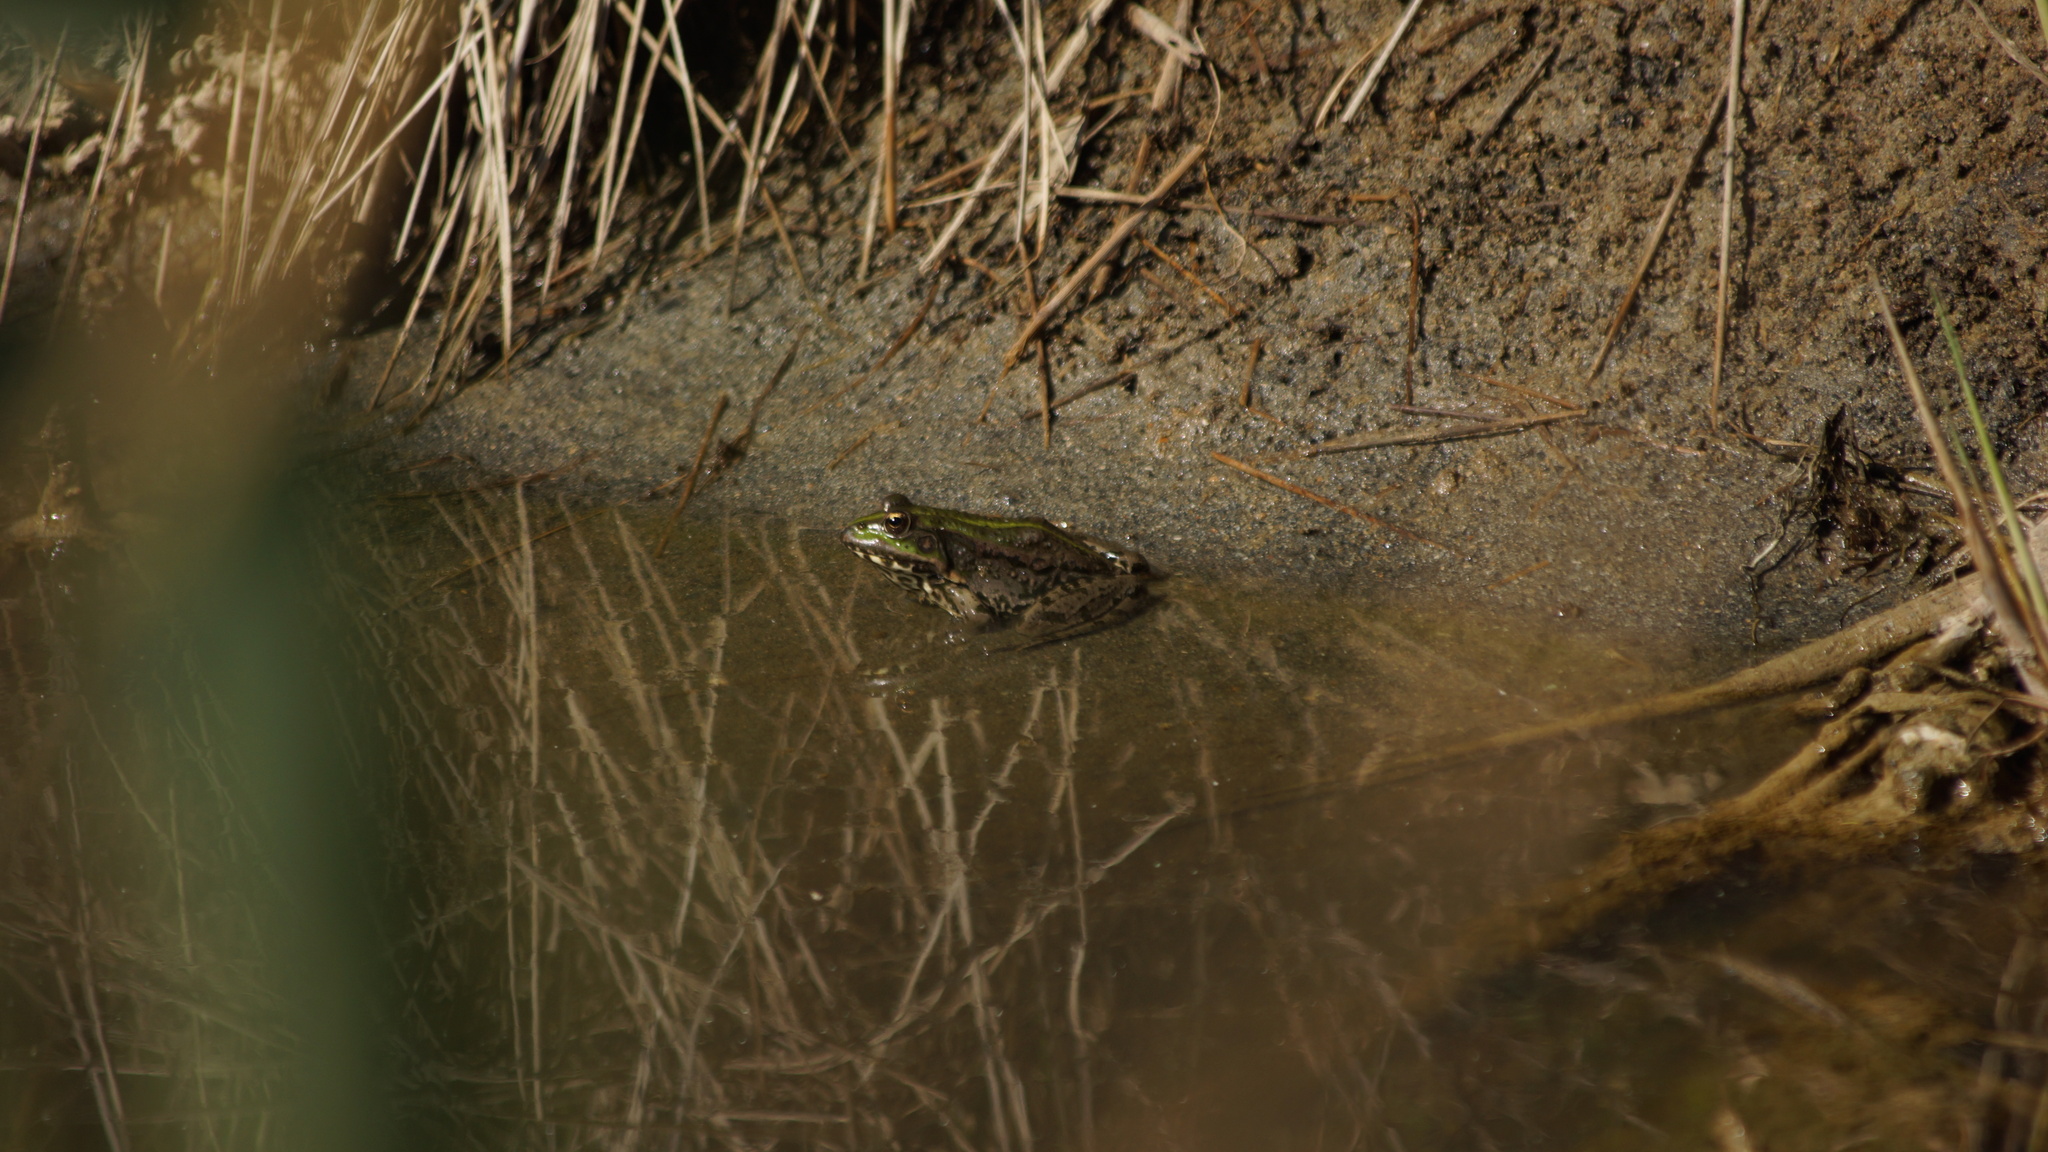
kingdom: Animalia
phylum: Chordata
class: Amphibia
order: Anura
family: Ranidae
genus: Pelophylax
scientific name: Pelophylax ridibundus
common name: Marsh frog
